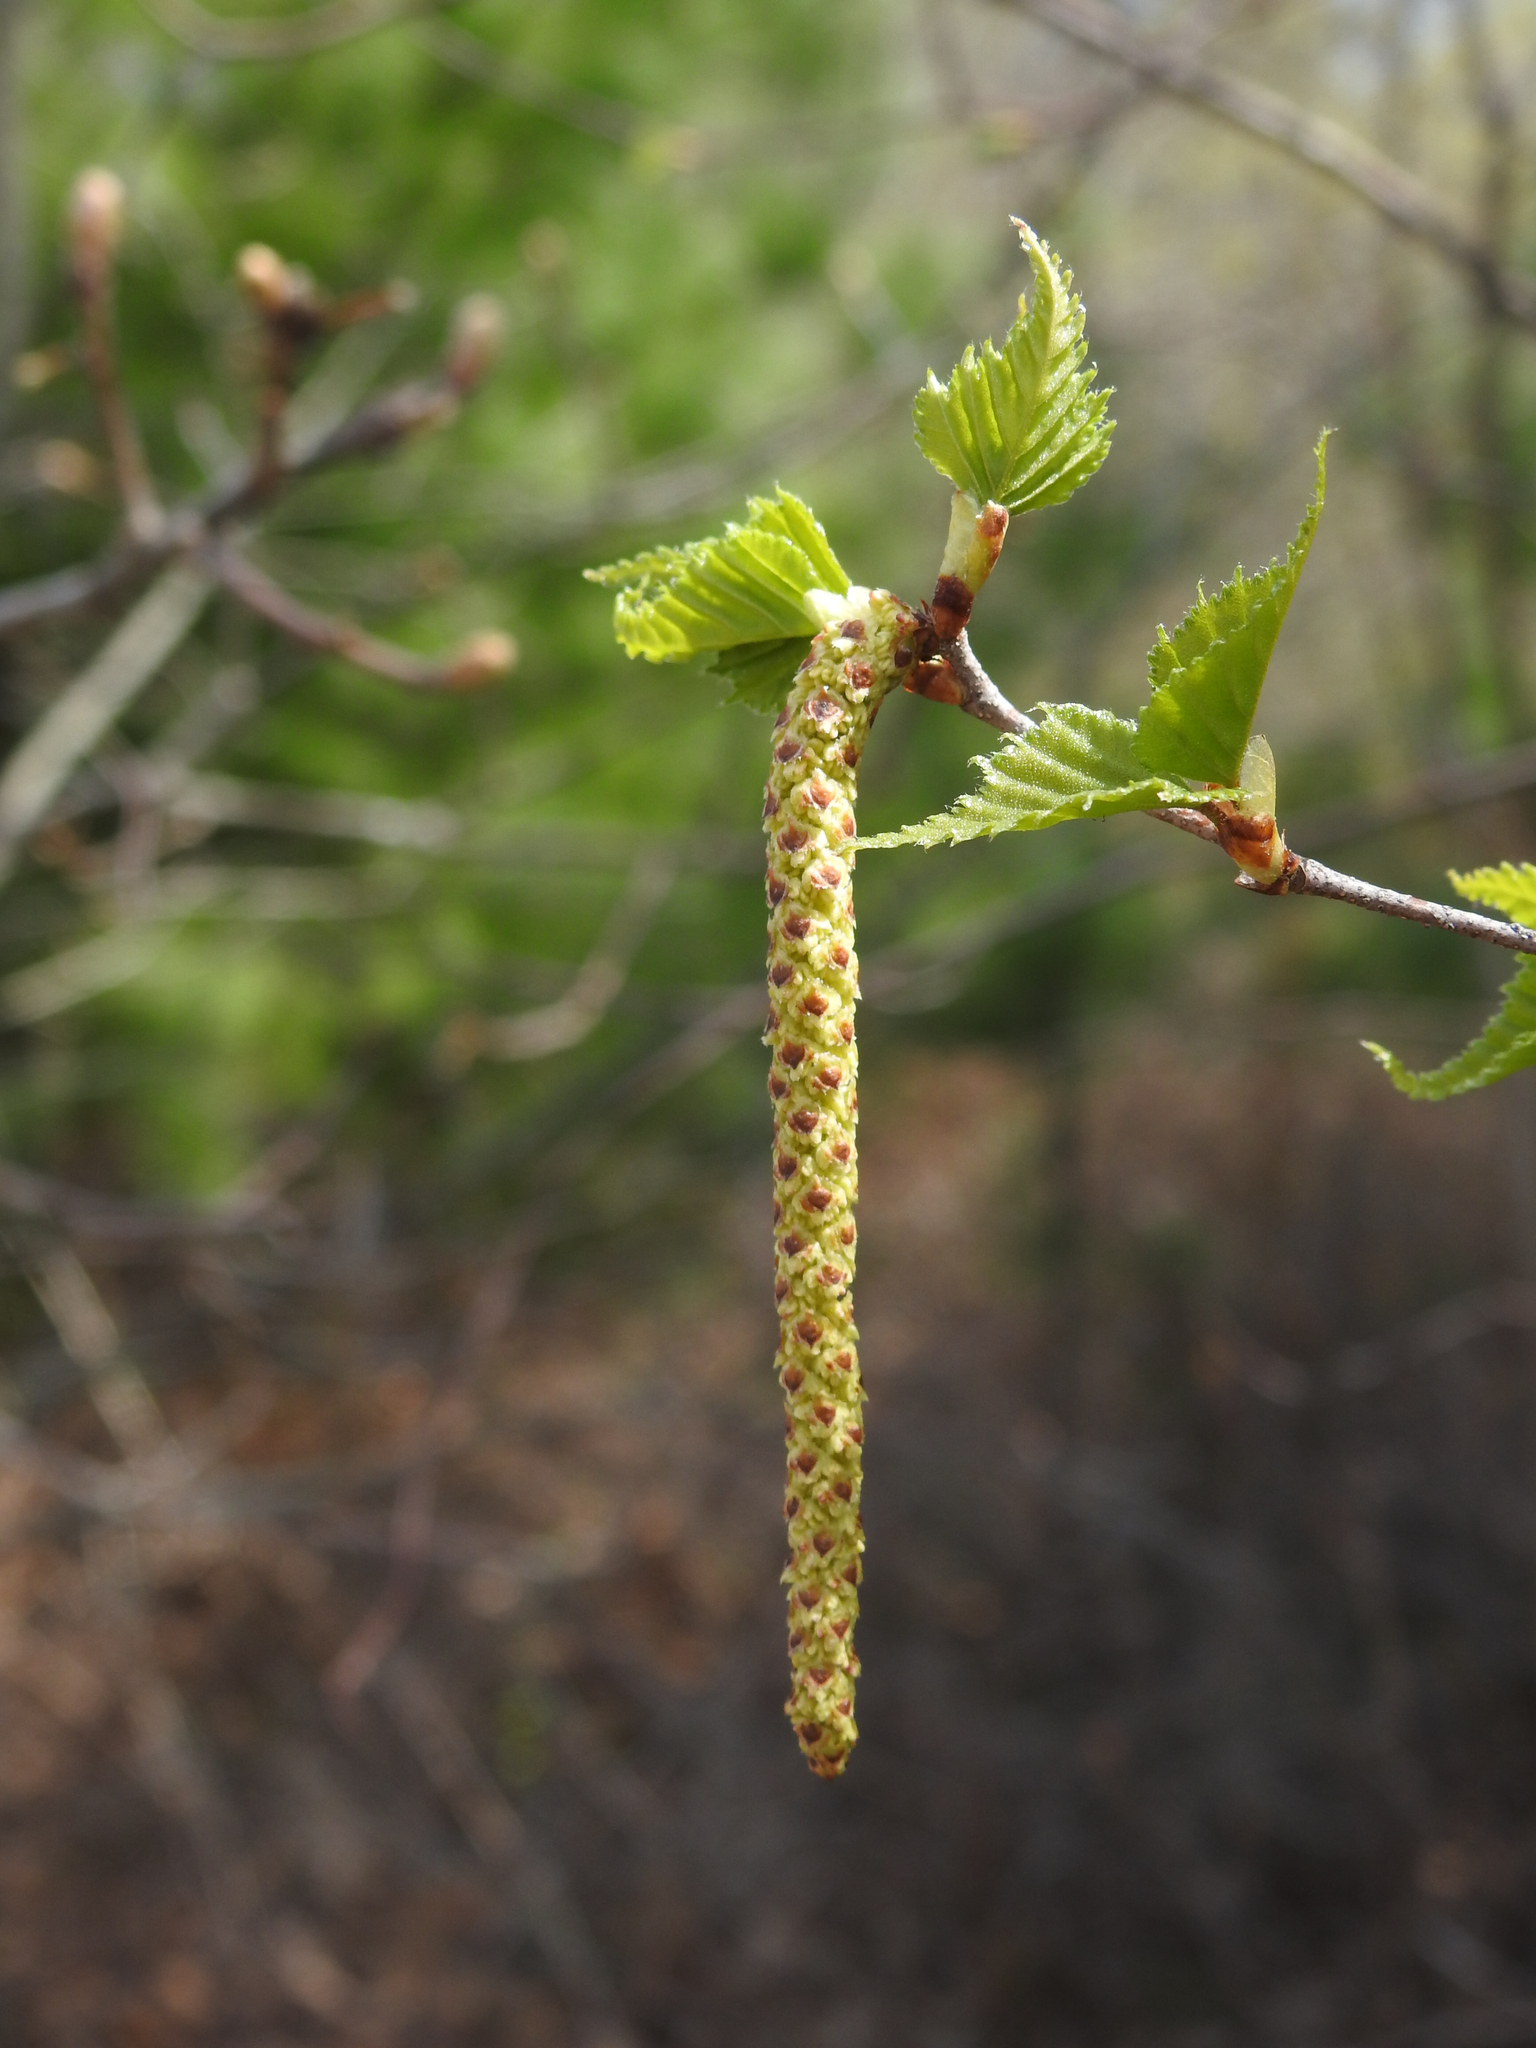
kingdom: Plantae
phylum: Tracheophyta
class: Magnoliopsida
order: Fagales
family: Betulaceae
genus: Betula
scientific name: Betula pendula
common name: Silver birch
